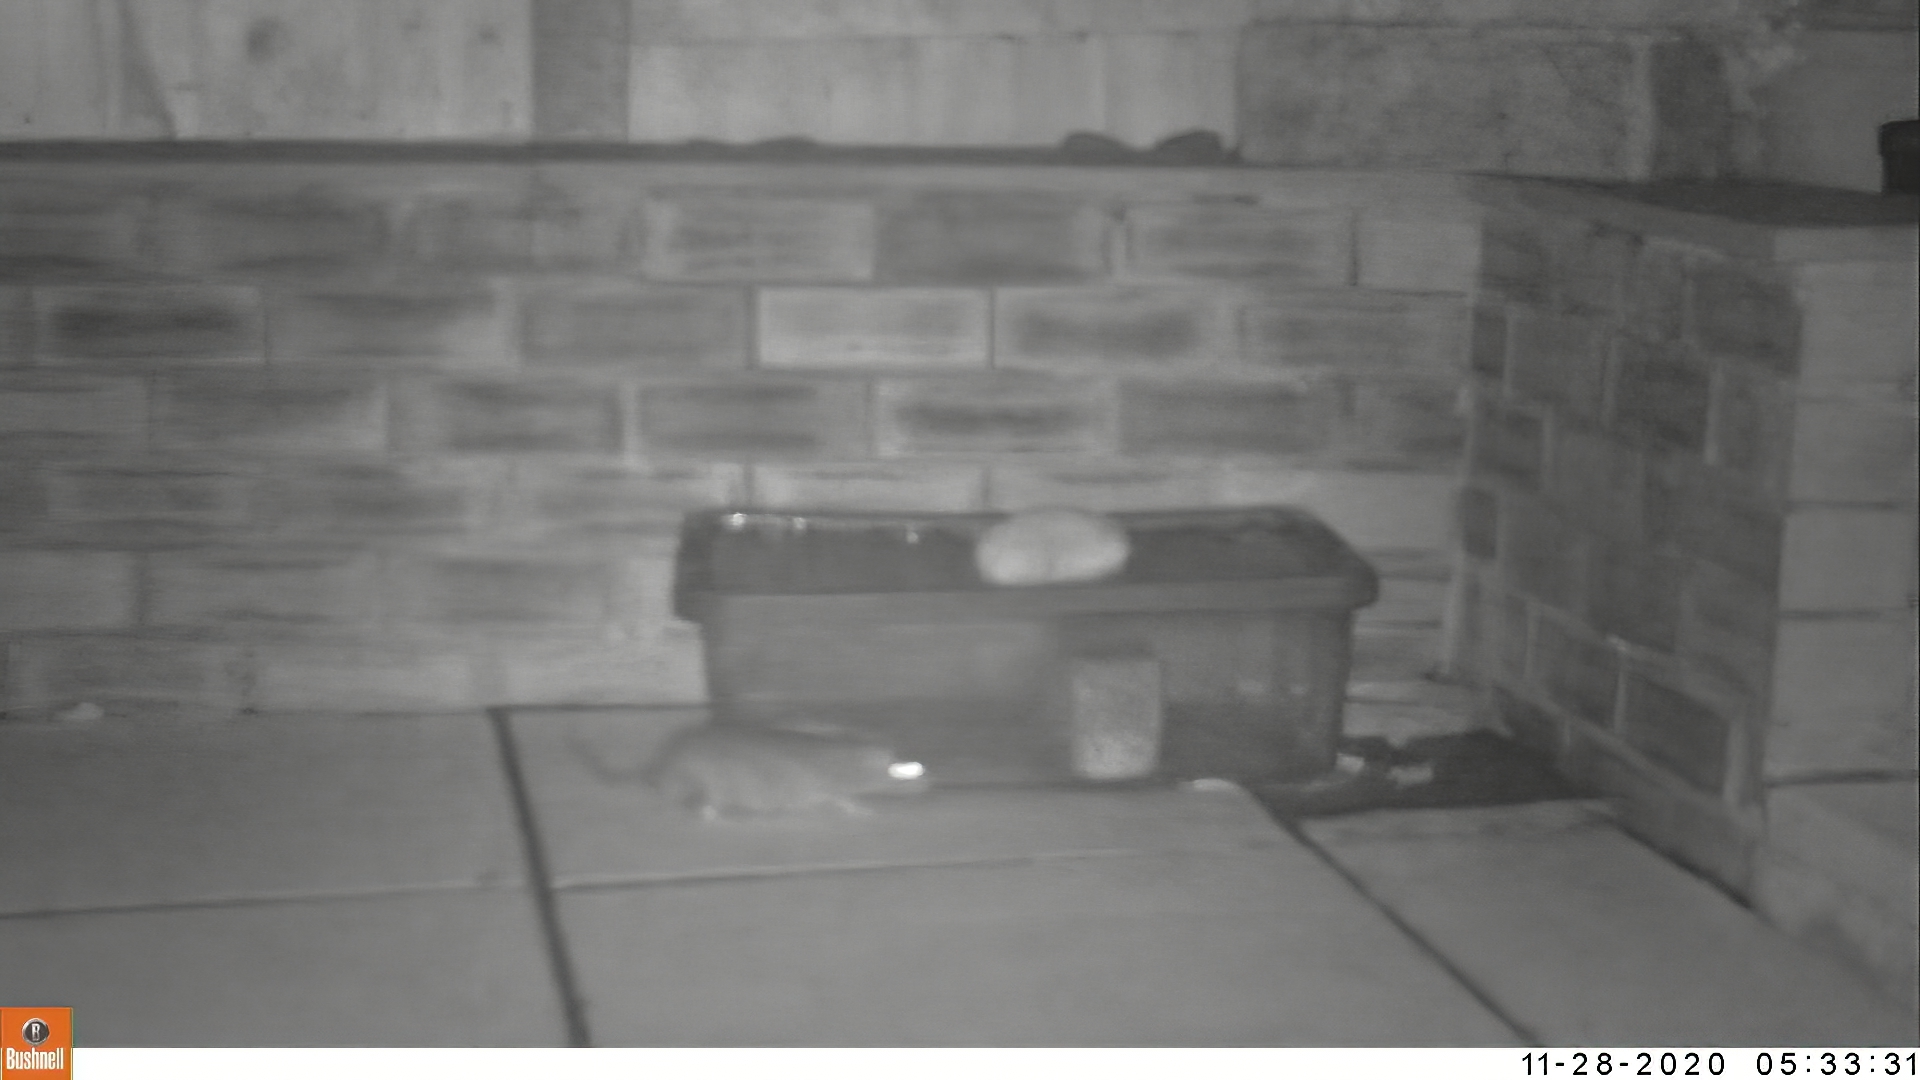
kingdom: Animalia
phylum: Chordata
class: Mammalia
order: Rodentia
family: Muridae
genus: Rattus
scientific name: Rattus norvegicus
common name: Brown rat
